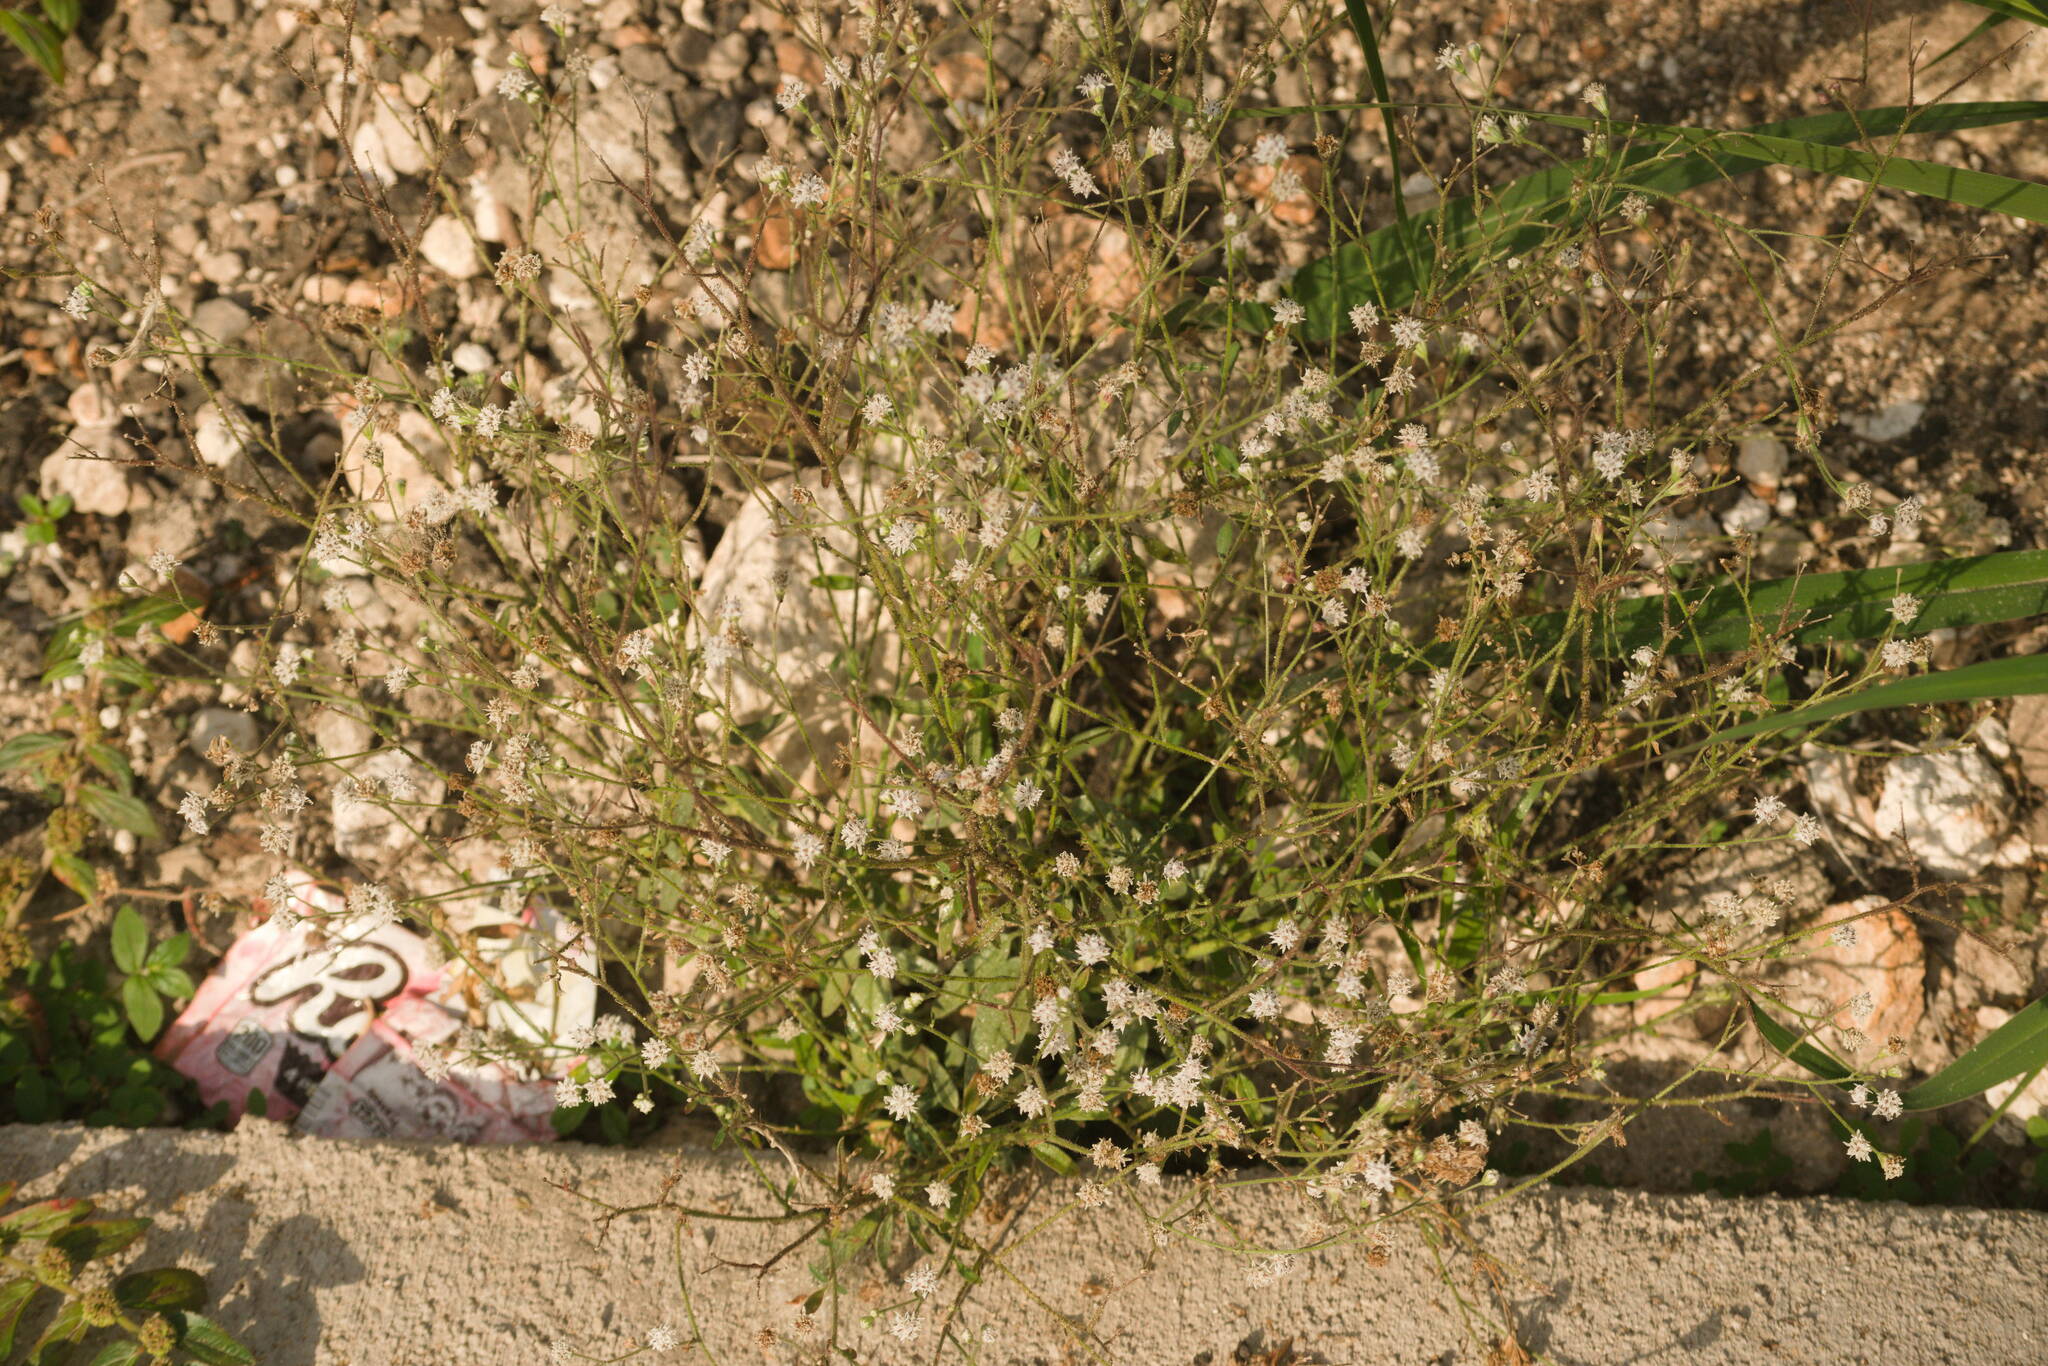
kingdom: Plantae
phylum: Tracheophyta
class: Magnoliopsida
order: Asterales
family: Asteraceae
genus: Florestina
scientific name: Florestina tripteris
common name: Sticky florestina
